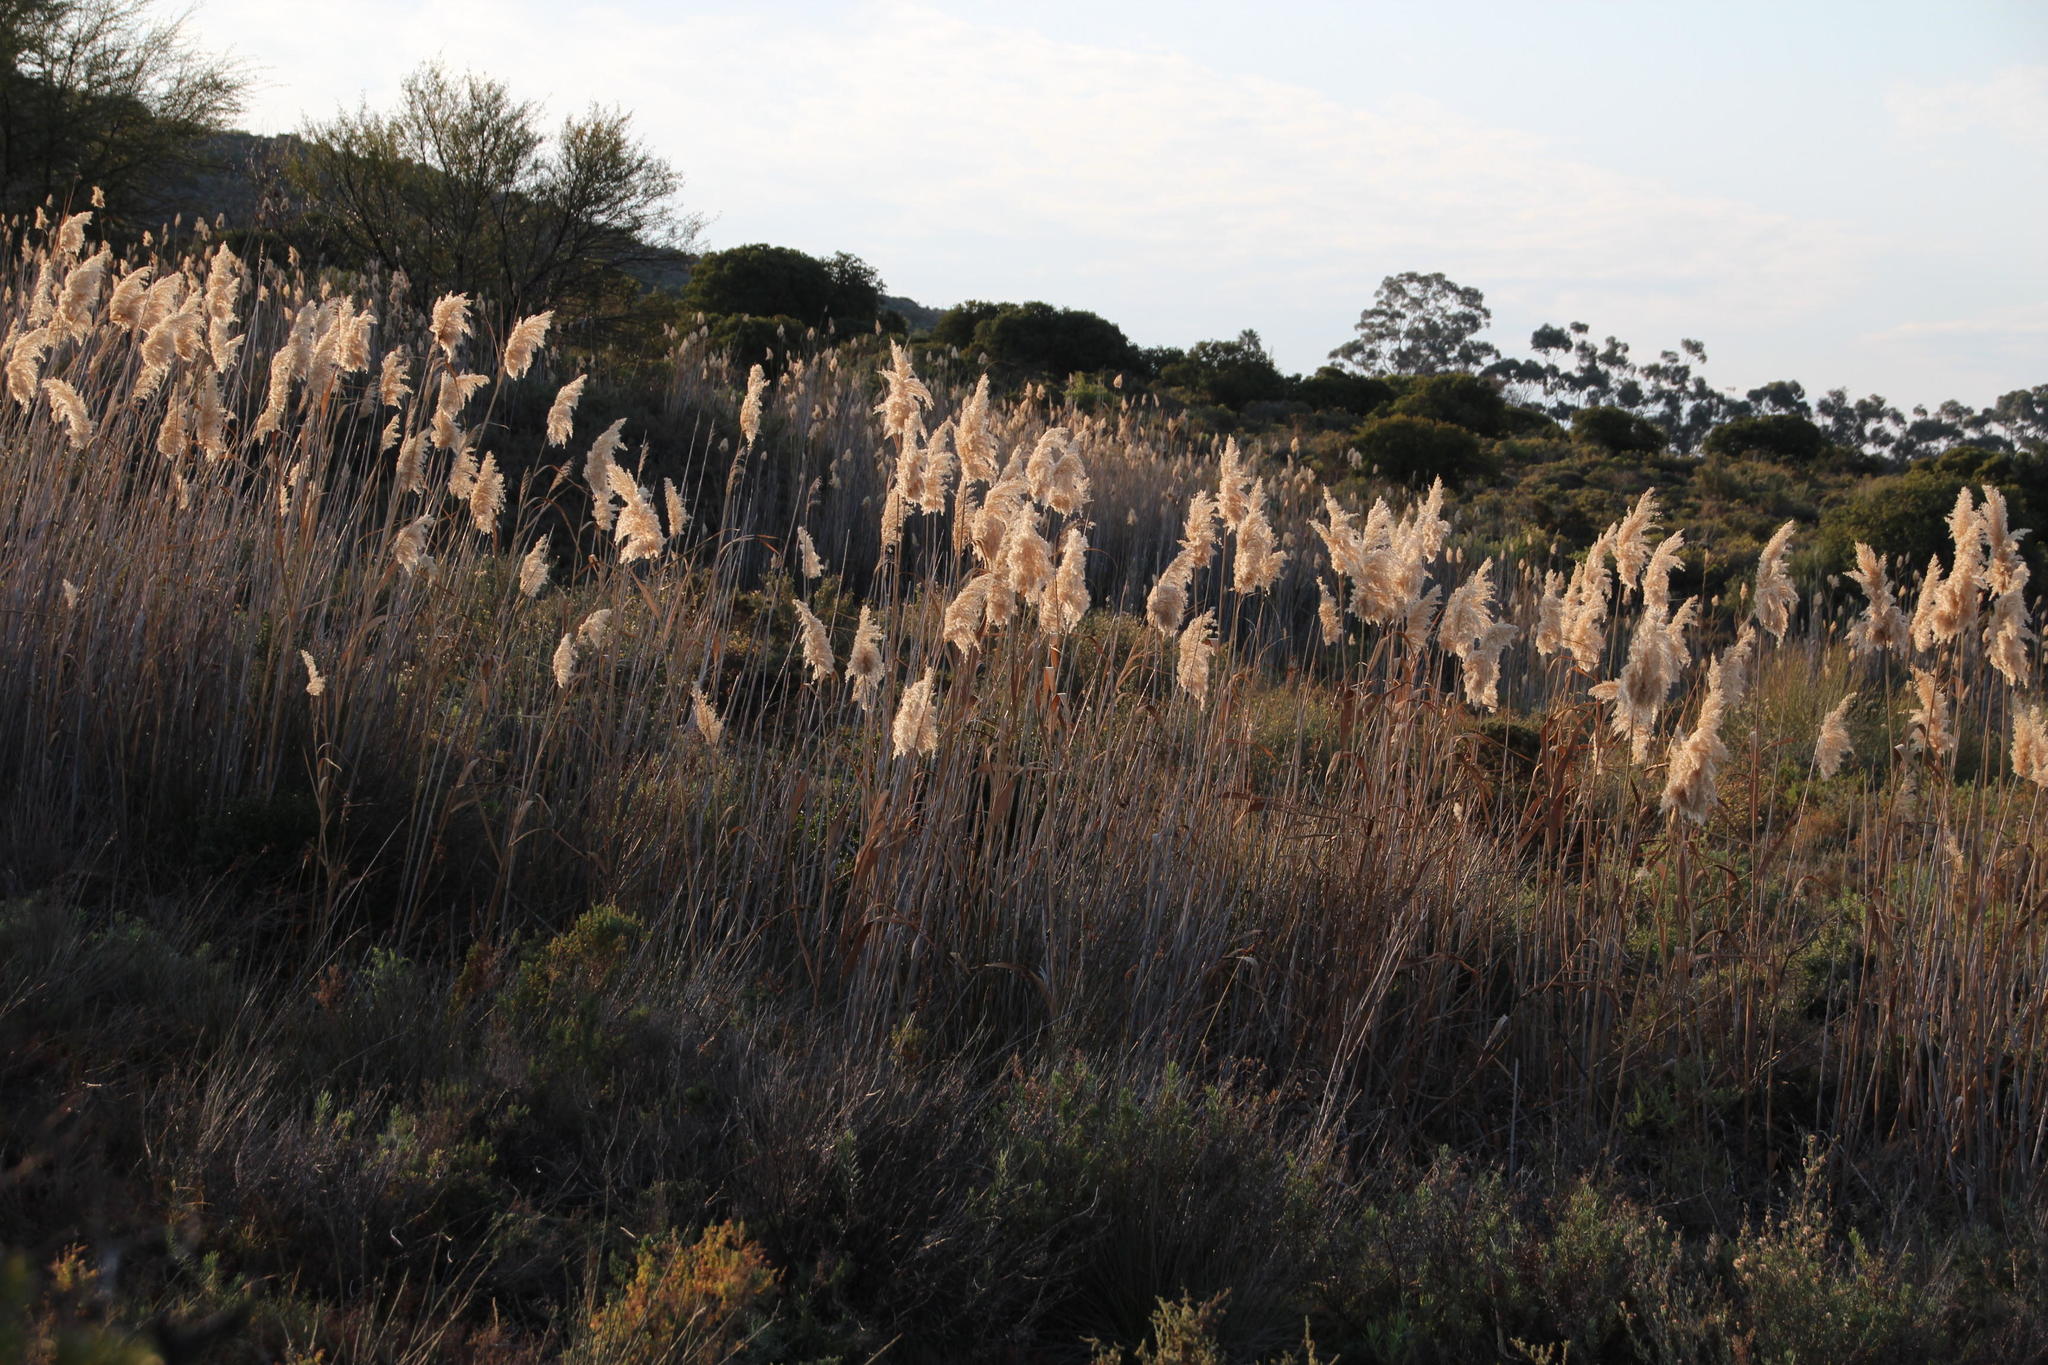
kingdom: Plantae
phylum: Tracheophyta
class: Liliopsida
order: Poales
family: Poaceae
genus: Phragmites
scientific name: Phragmites australis
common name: Common reed
